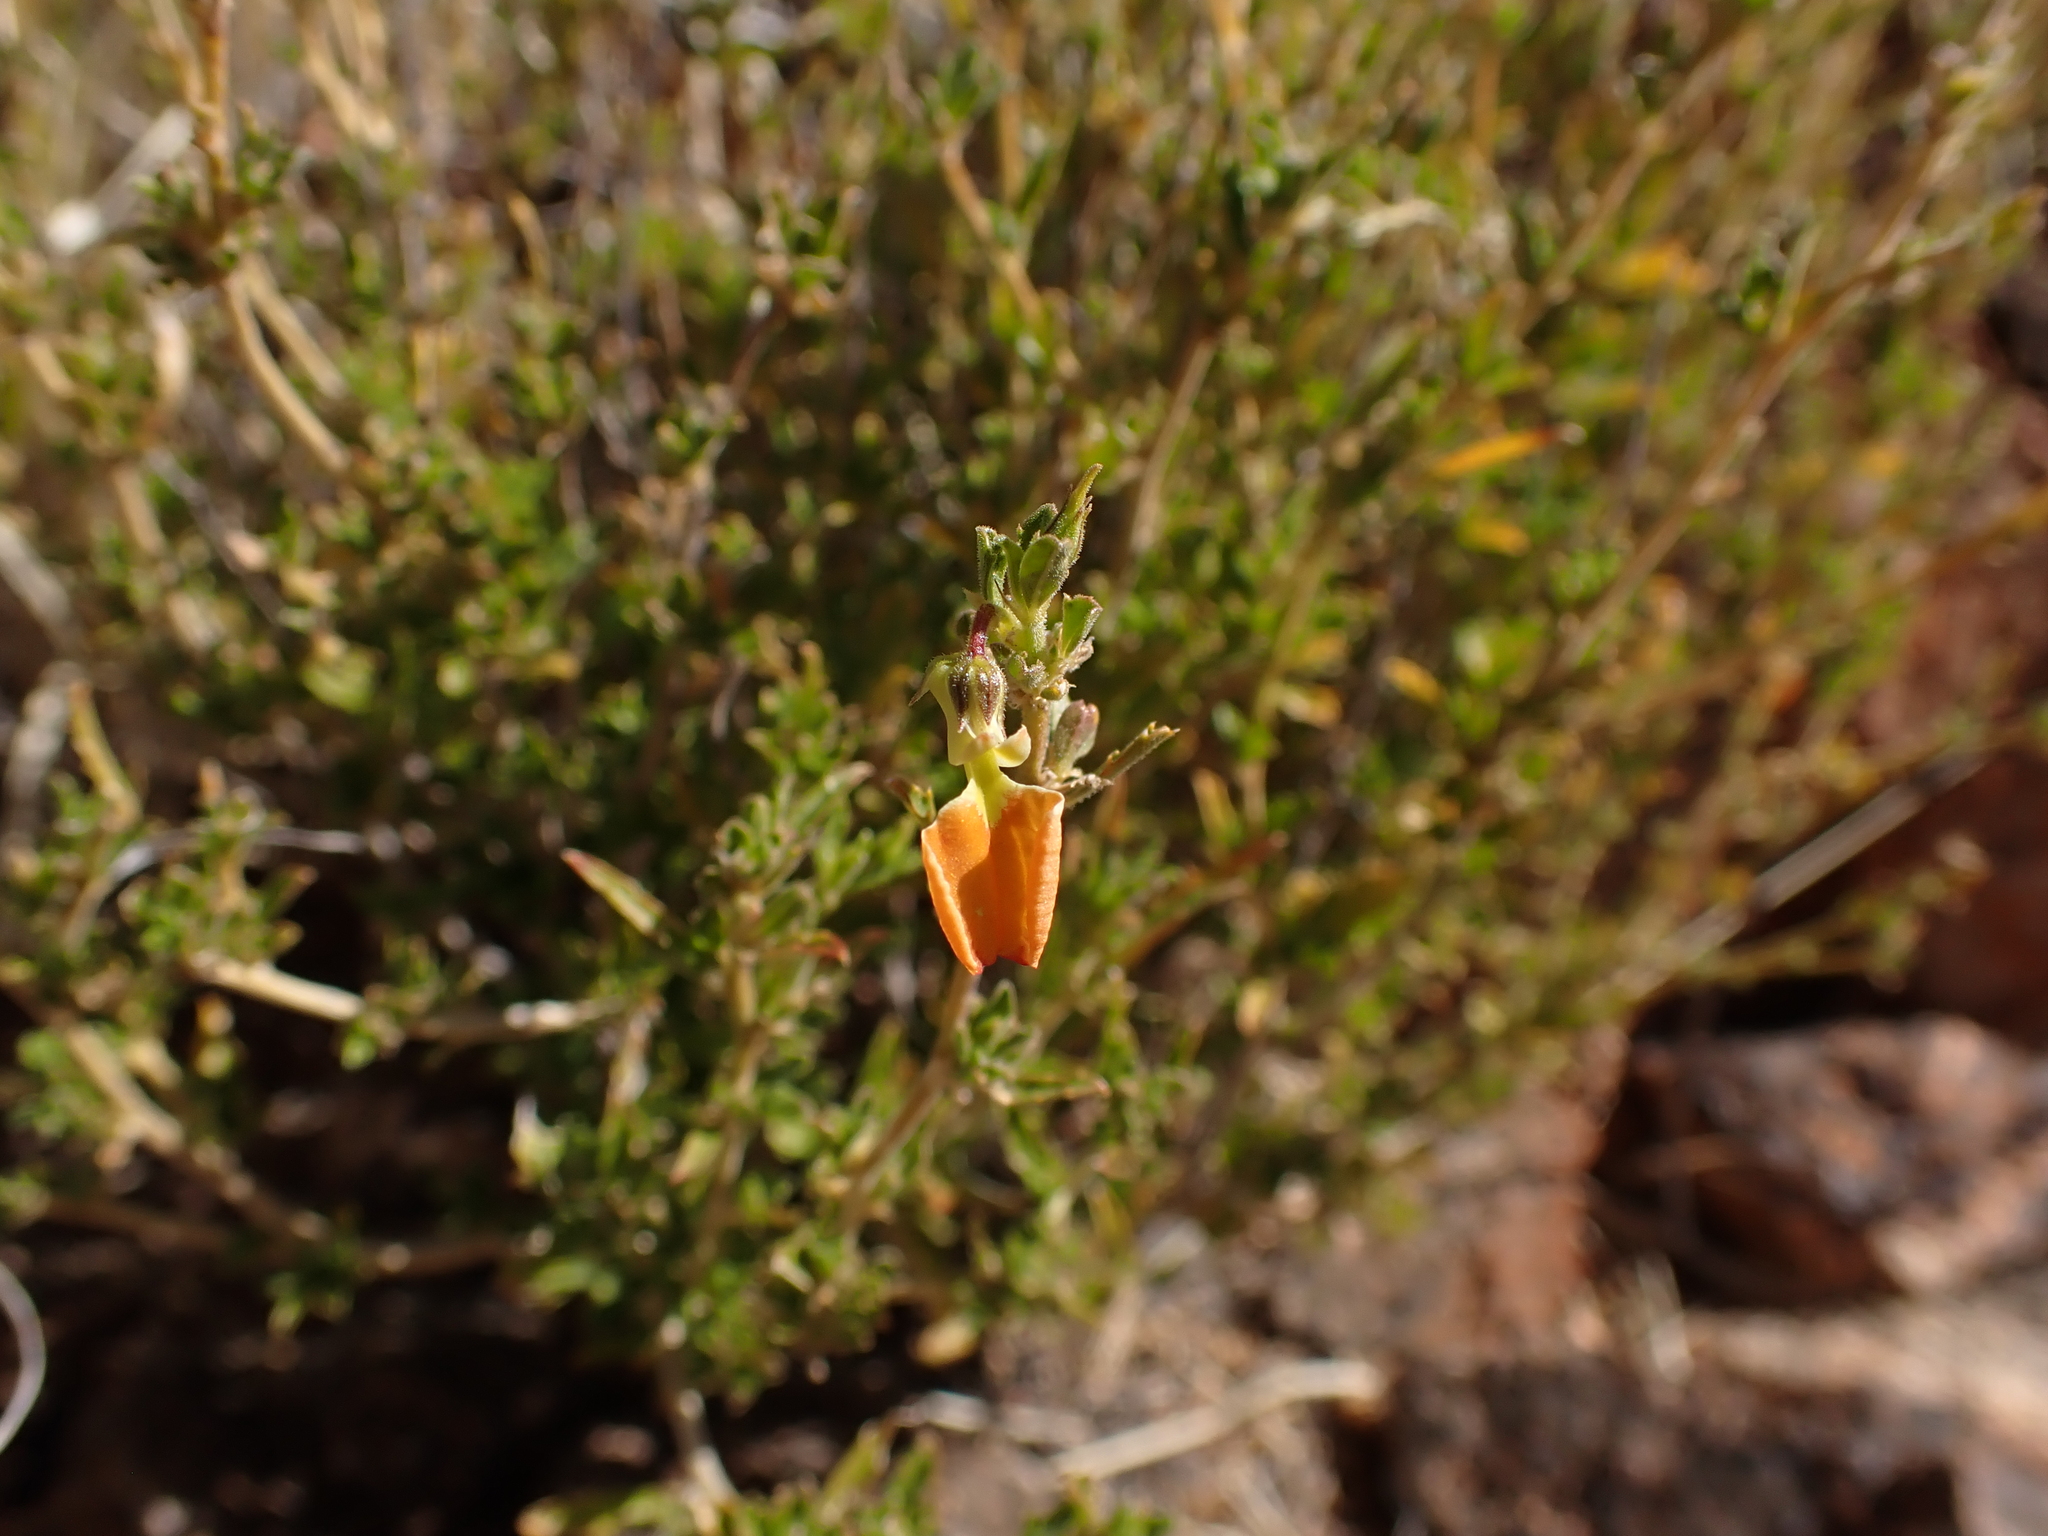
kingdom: Plantae
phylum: Tracheophyta
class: Magnoliopsida
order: Malpighiales
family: Violaceae
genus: Pigea
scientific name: Pigea aurantiaca
